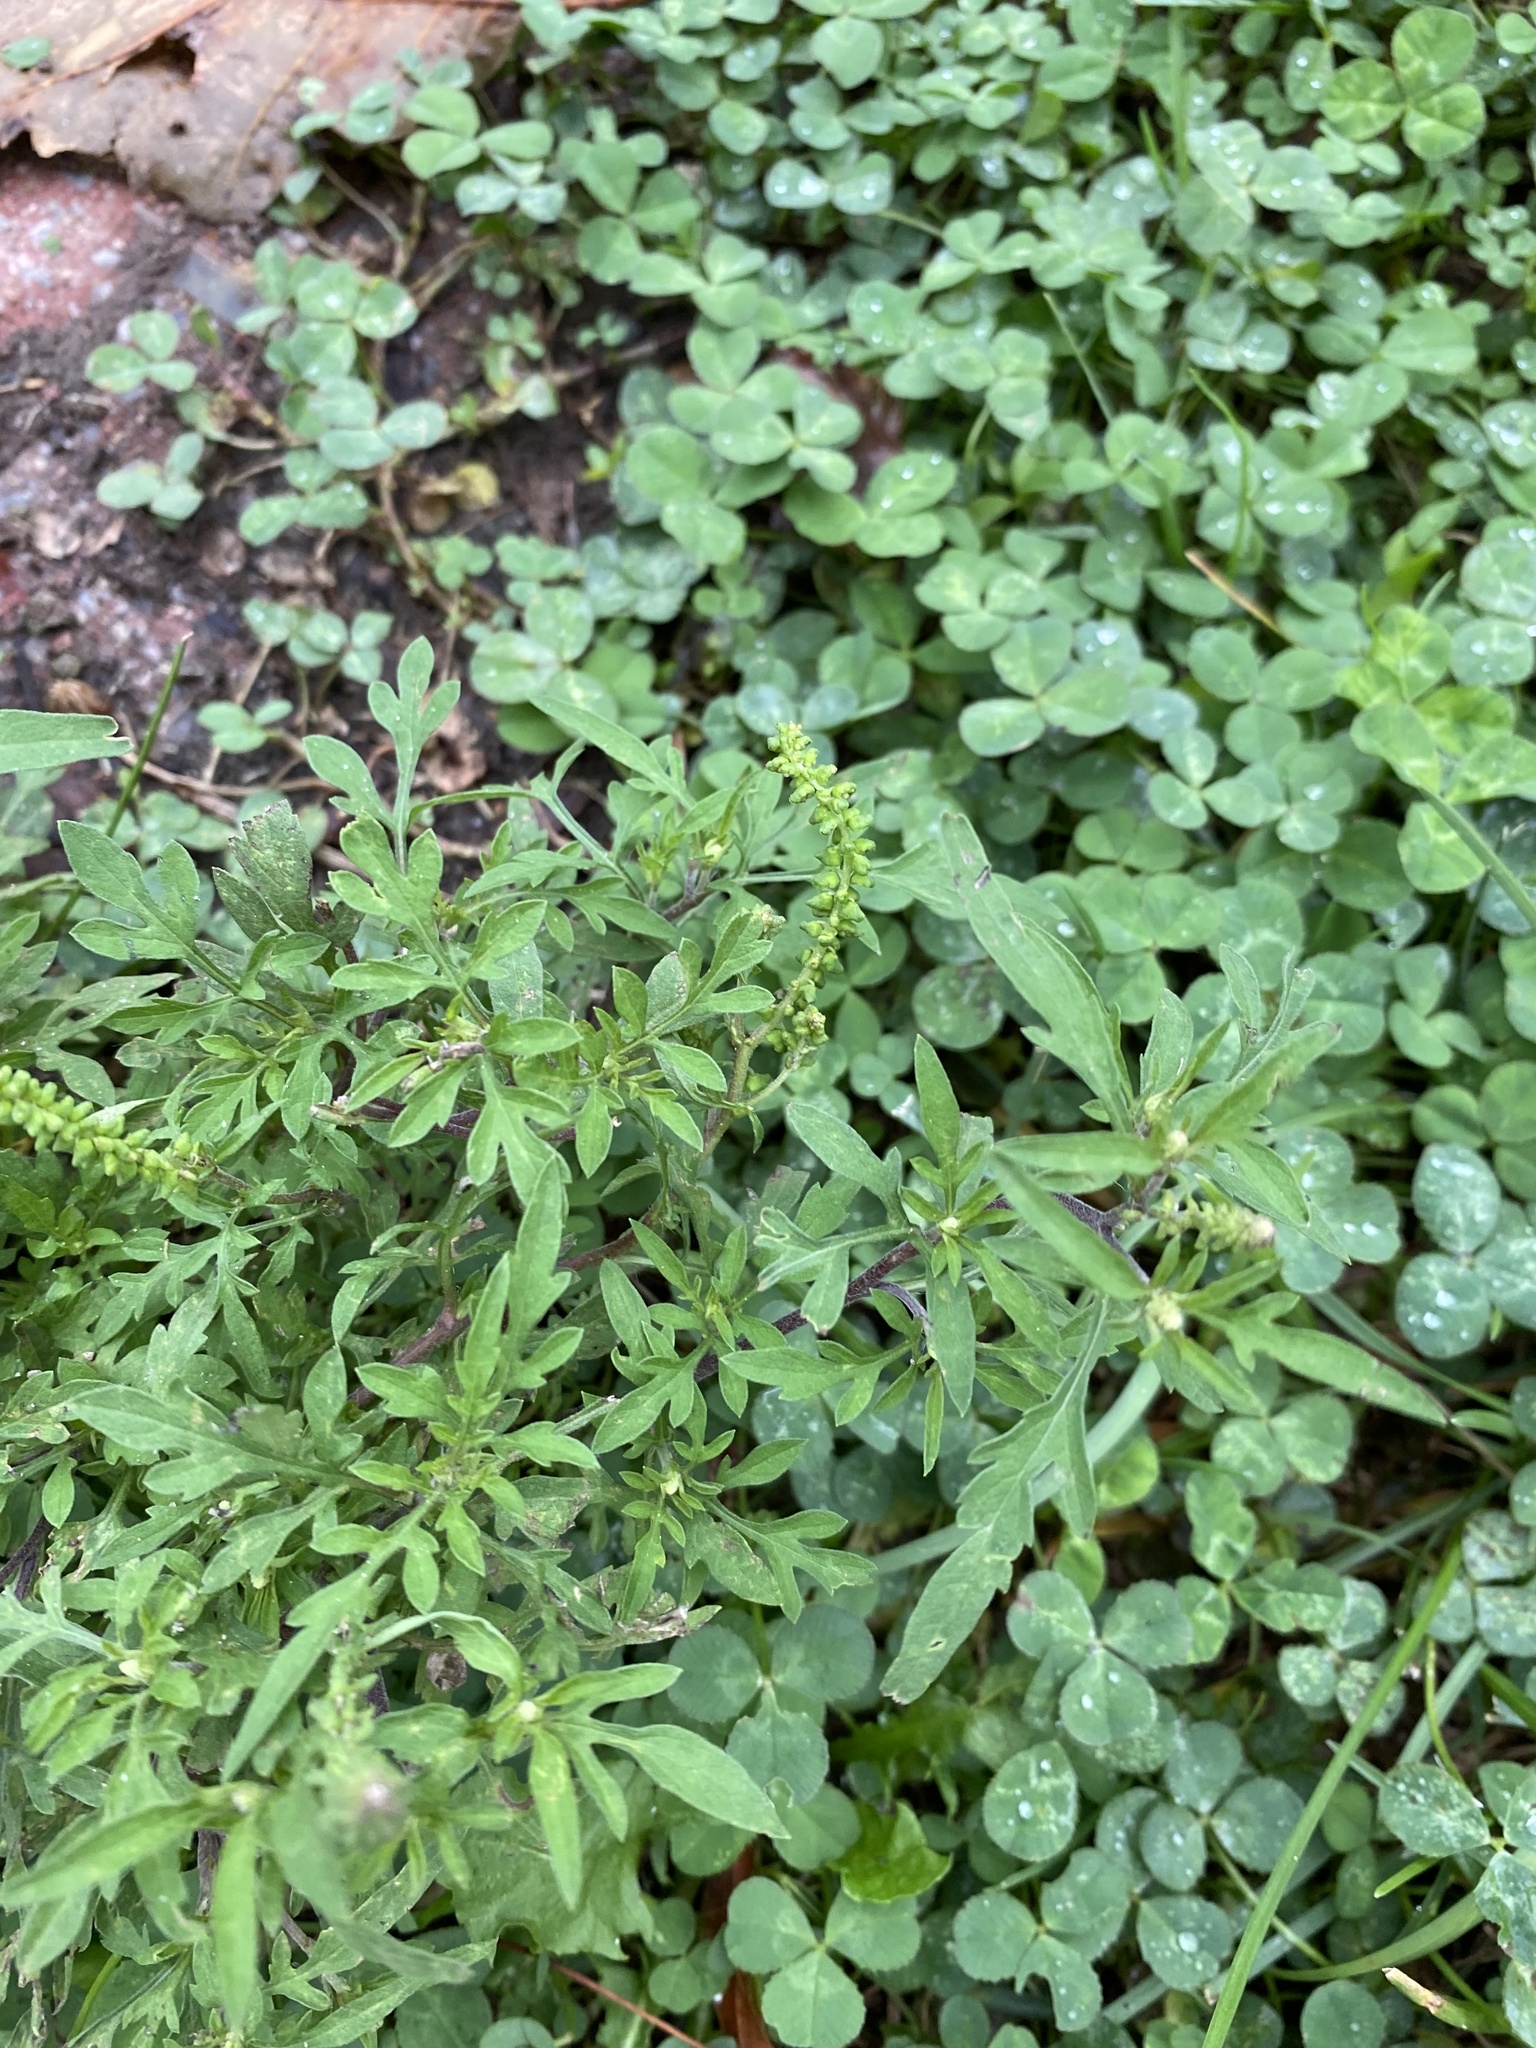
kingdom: Plantae
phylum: Tracheophyta
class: Magnoliopsida
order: Asterales
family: Asteraceae
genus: Ambrosia
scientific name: Ambrosia artemisiifolia
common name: Annual ragweed
